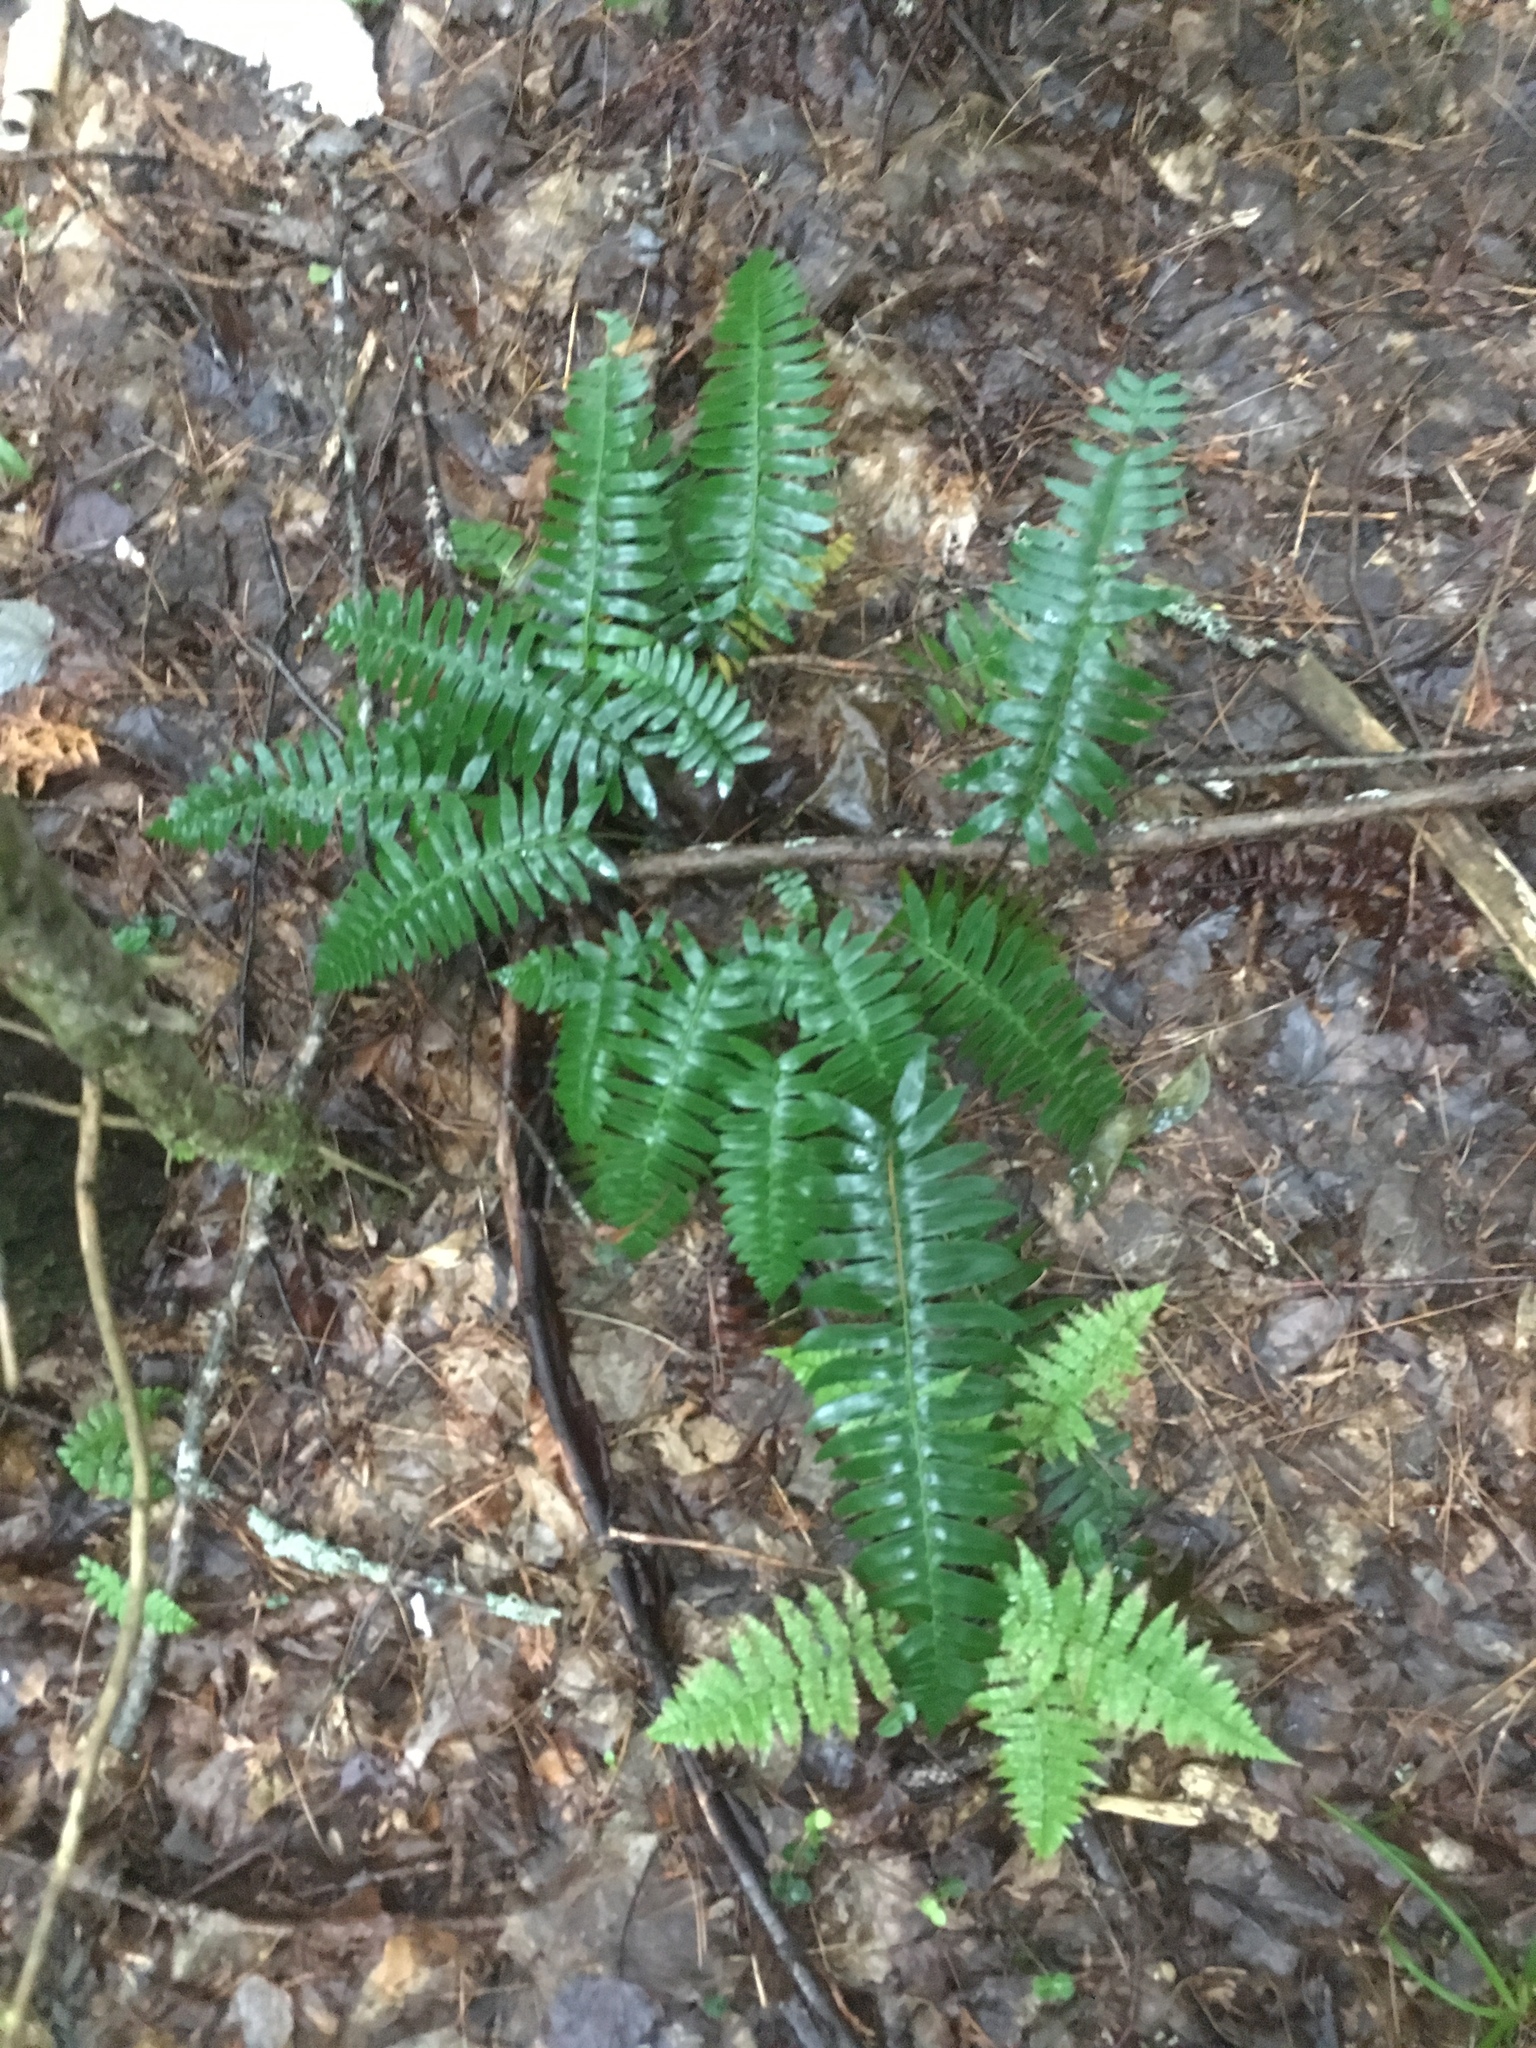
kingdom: Plantae
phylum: Tracheophyta
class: Polypodiopsida
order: Polypodiales
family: Dryopteridaceae
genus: Polystichum
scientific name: Polystichum acrostichoides
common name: Christmas fern
